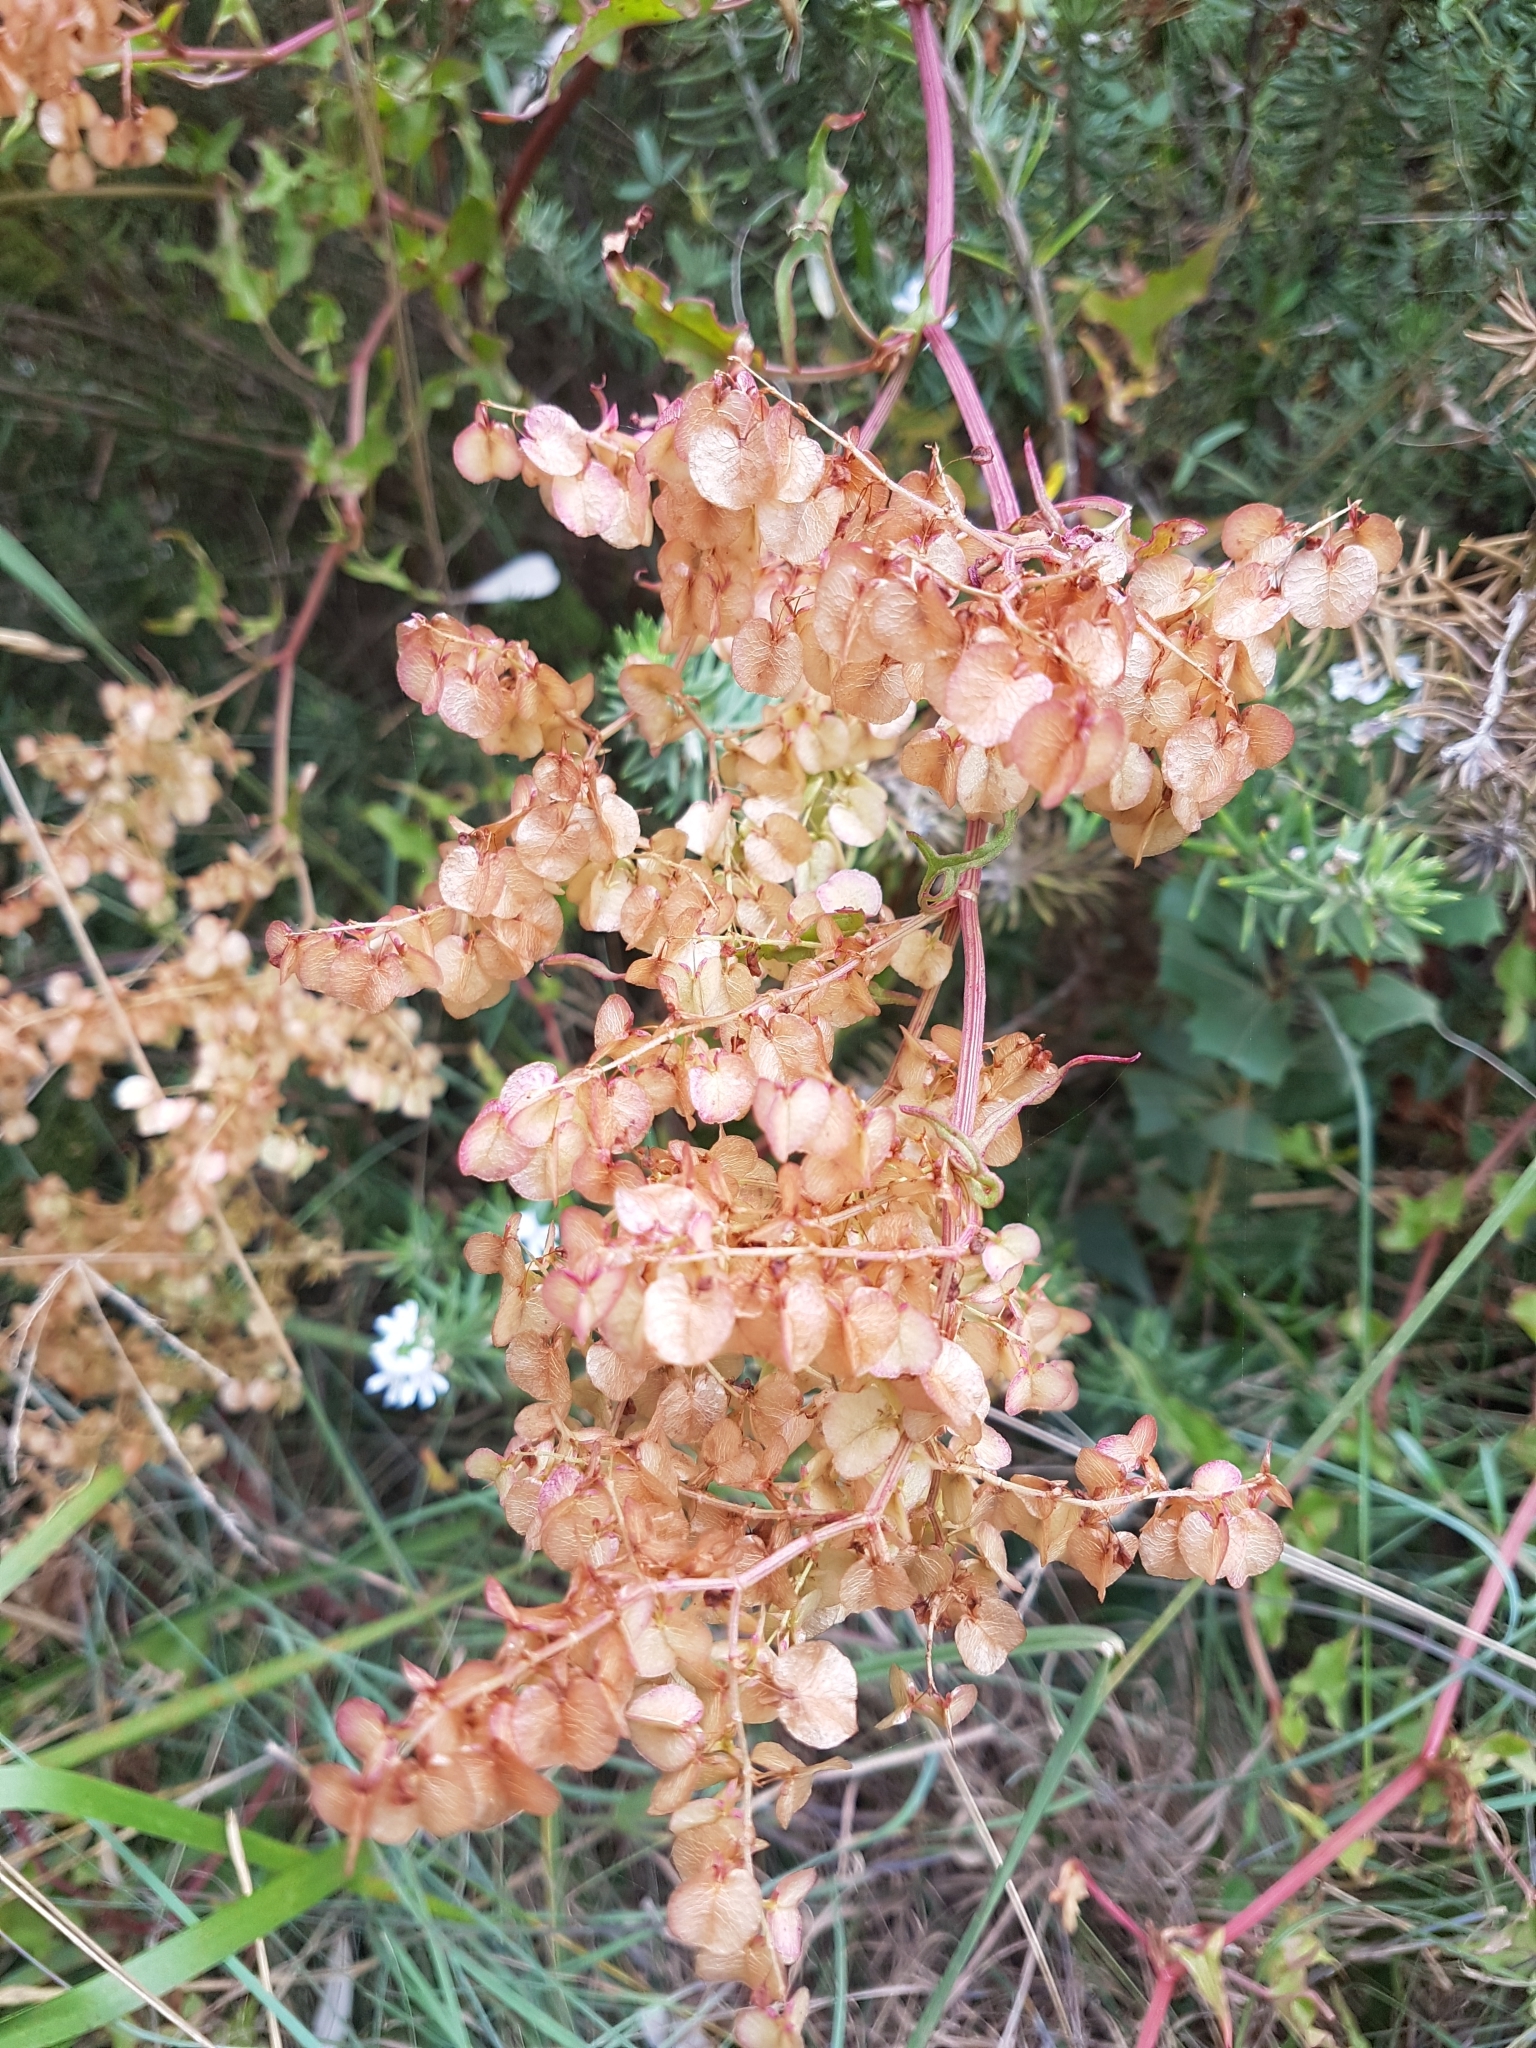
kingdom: Plantae
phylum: Tracheophyta
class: Magnoliopsida
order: Caryophyllales
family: Polygonaceae
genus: Rumex
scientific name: Rumex sagittatus
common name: Climbing dock
